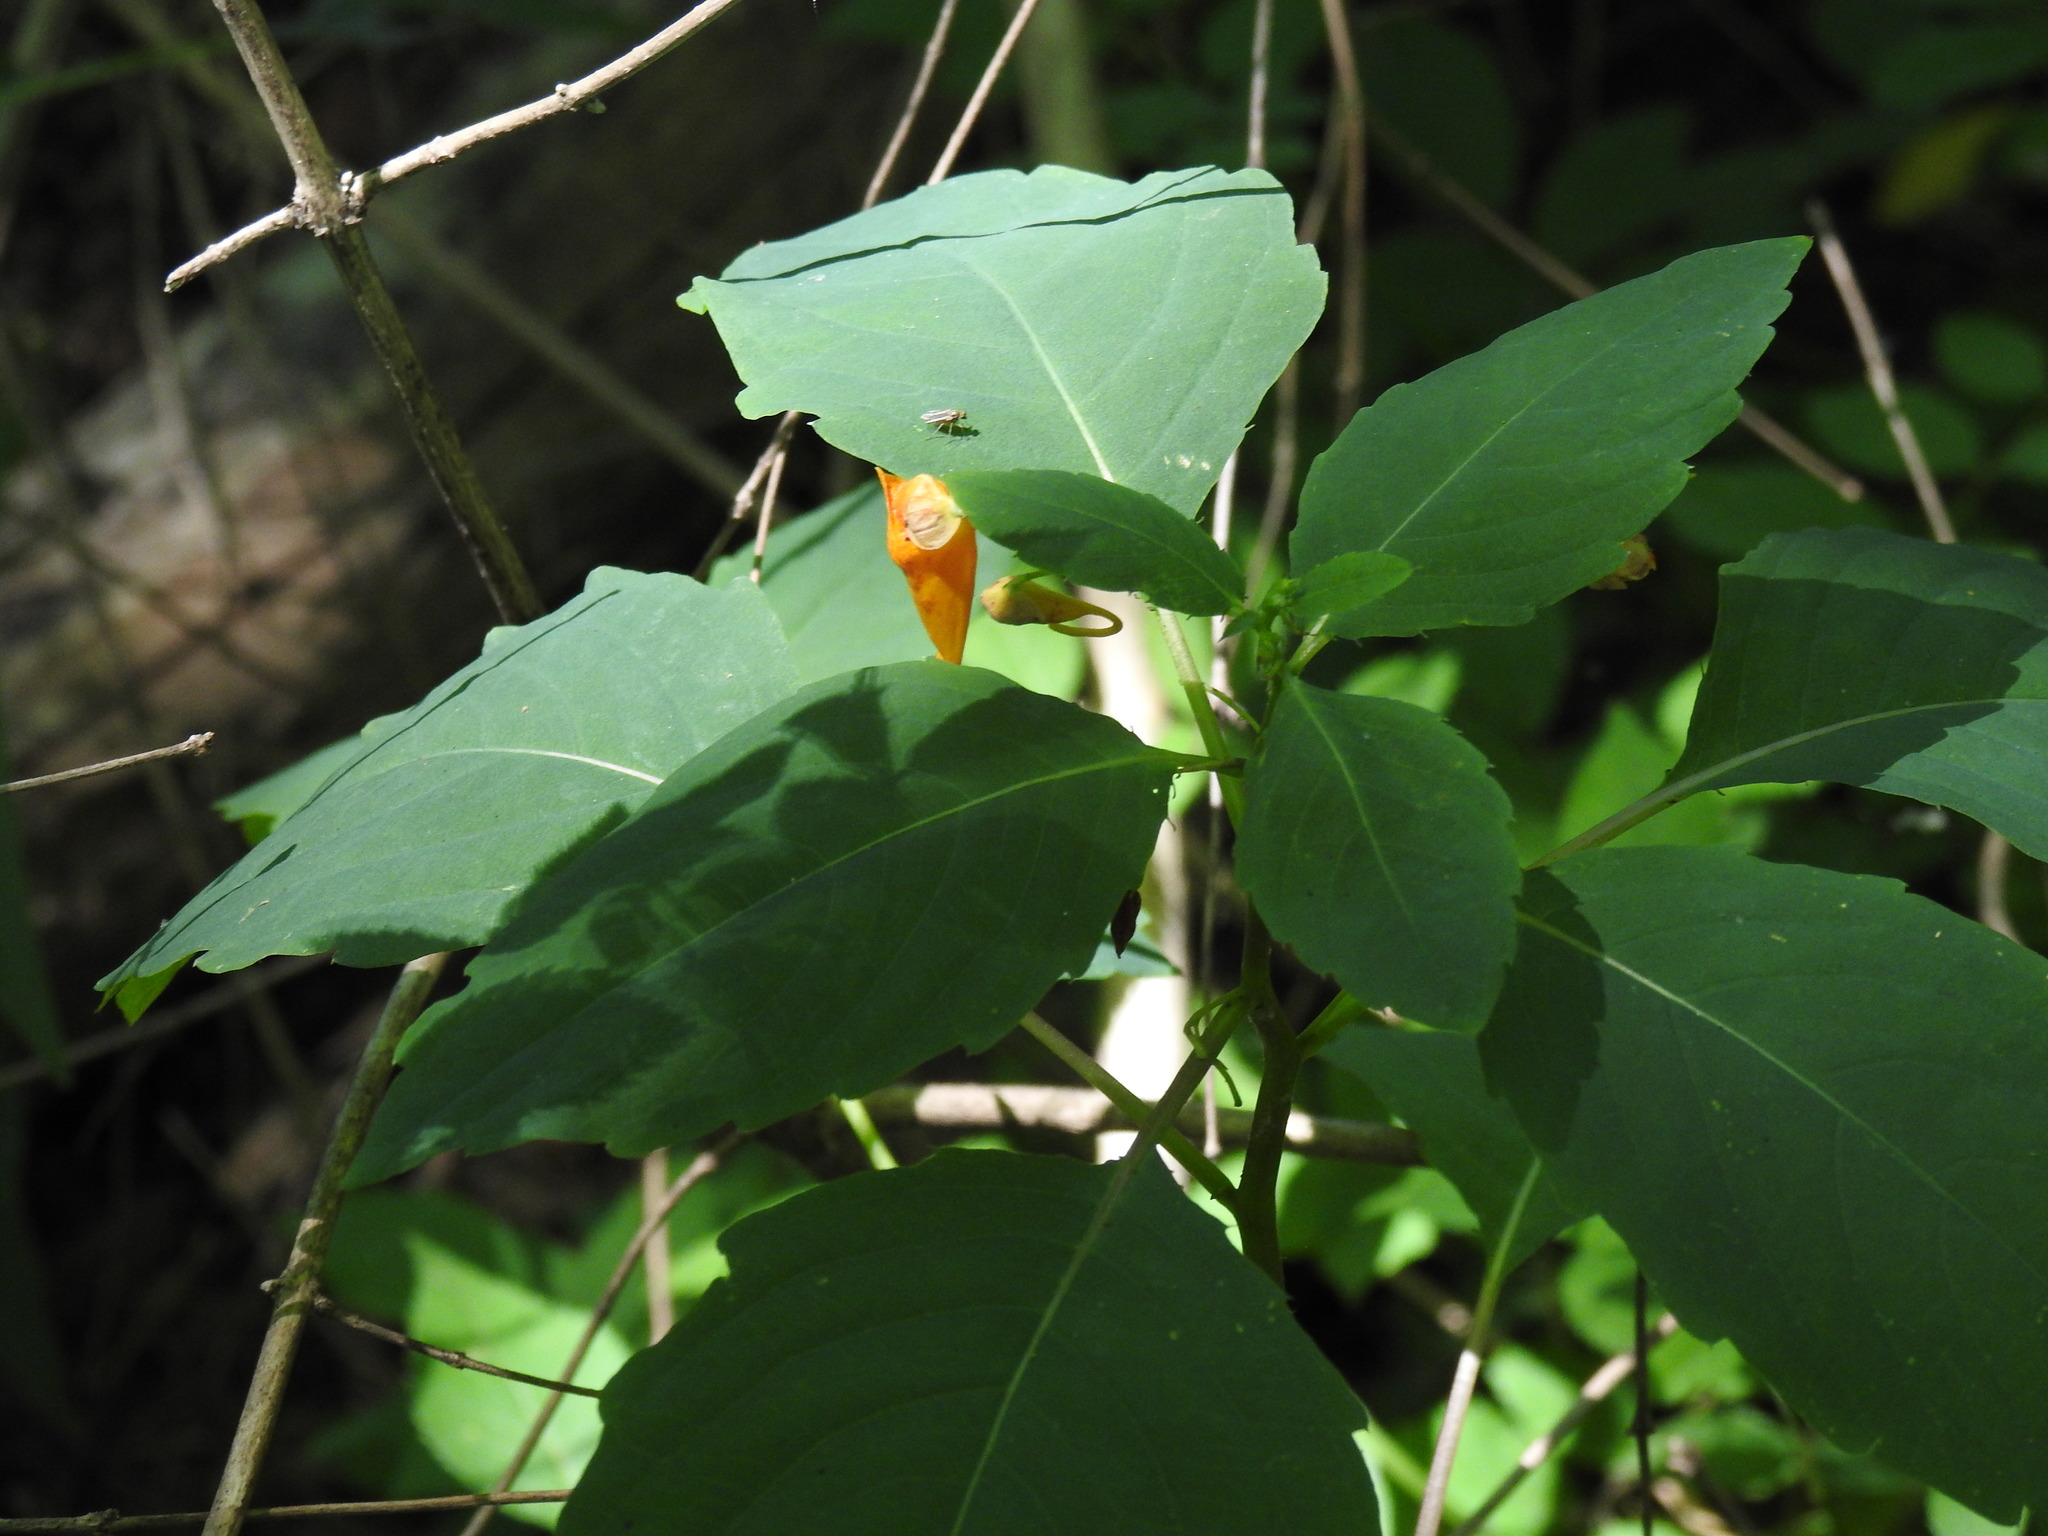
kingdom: Plantae
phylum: Tracheophyta
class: Magnoliopsida
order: Ericales
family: Balsaminaceae
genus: Impatiens
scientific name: Impatiens capensis
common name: Orange balsam
